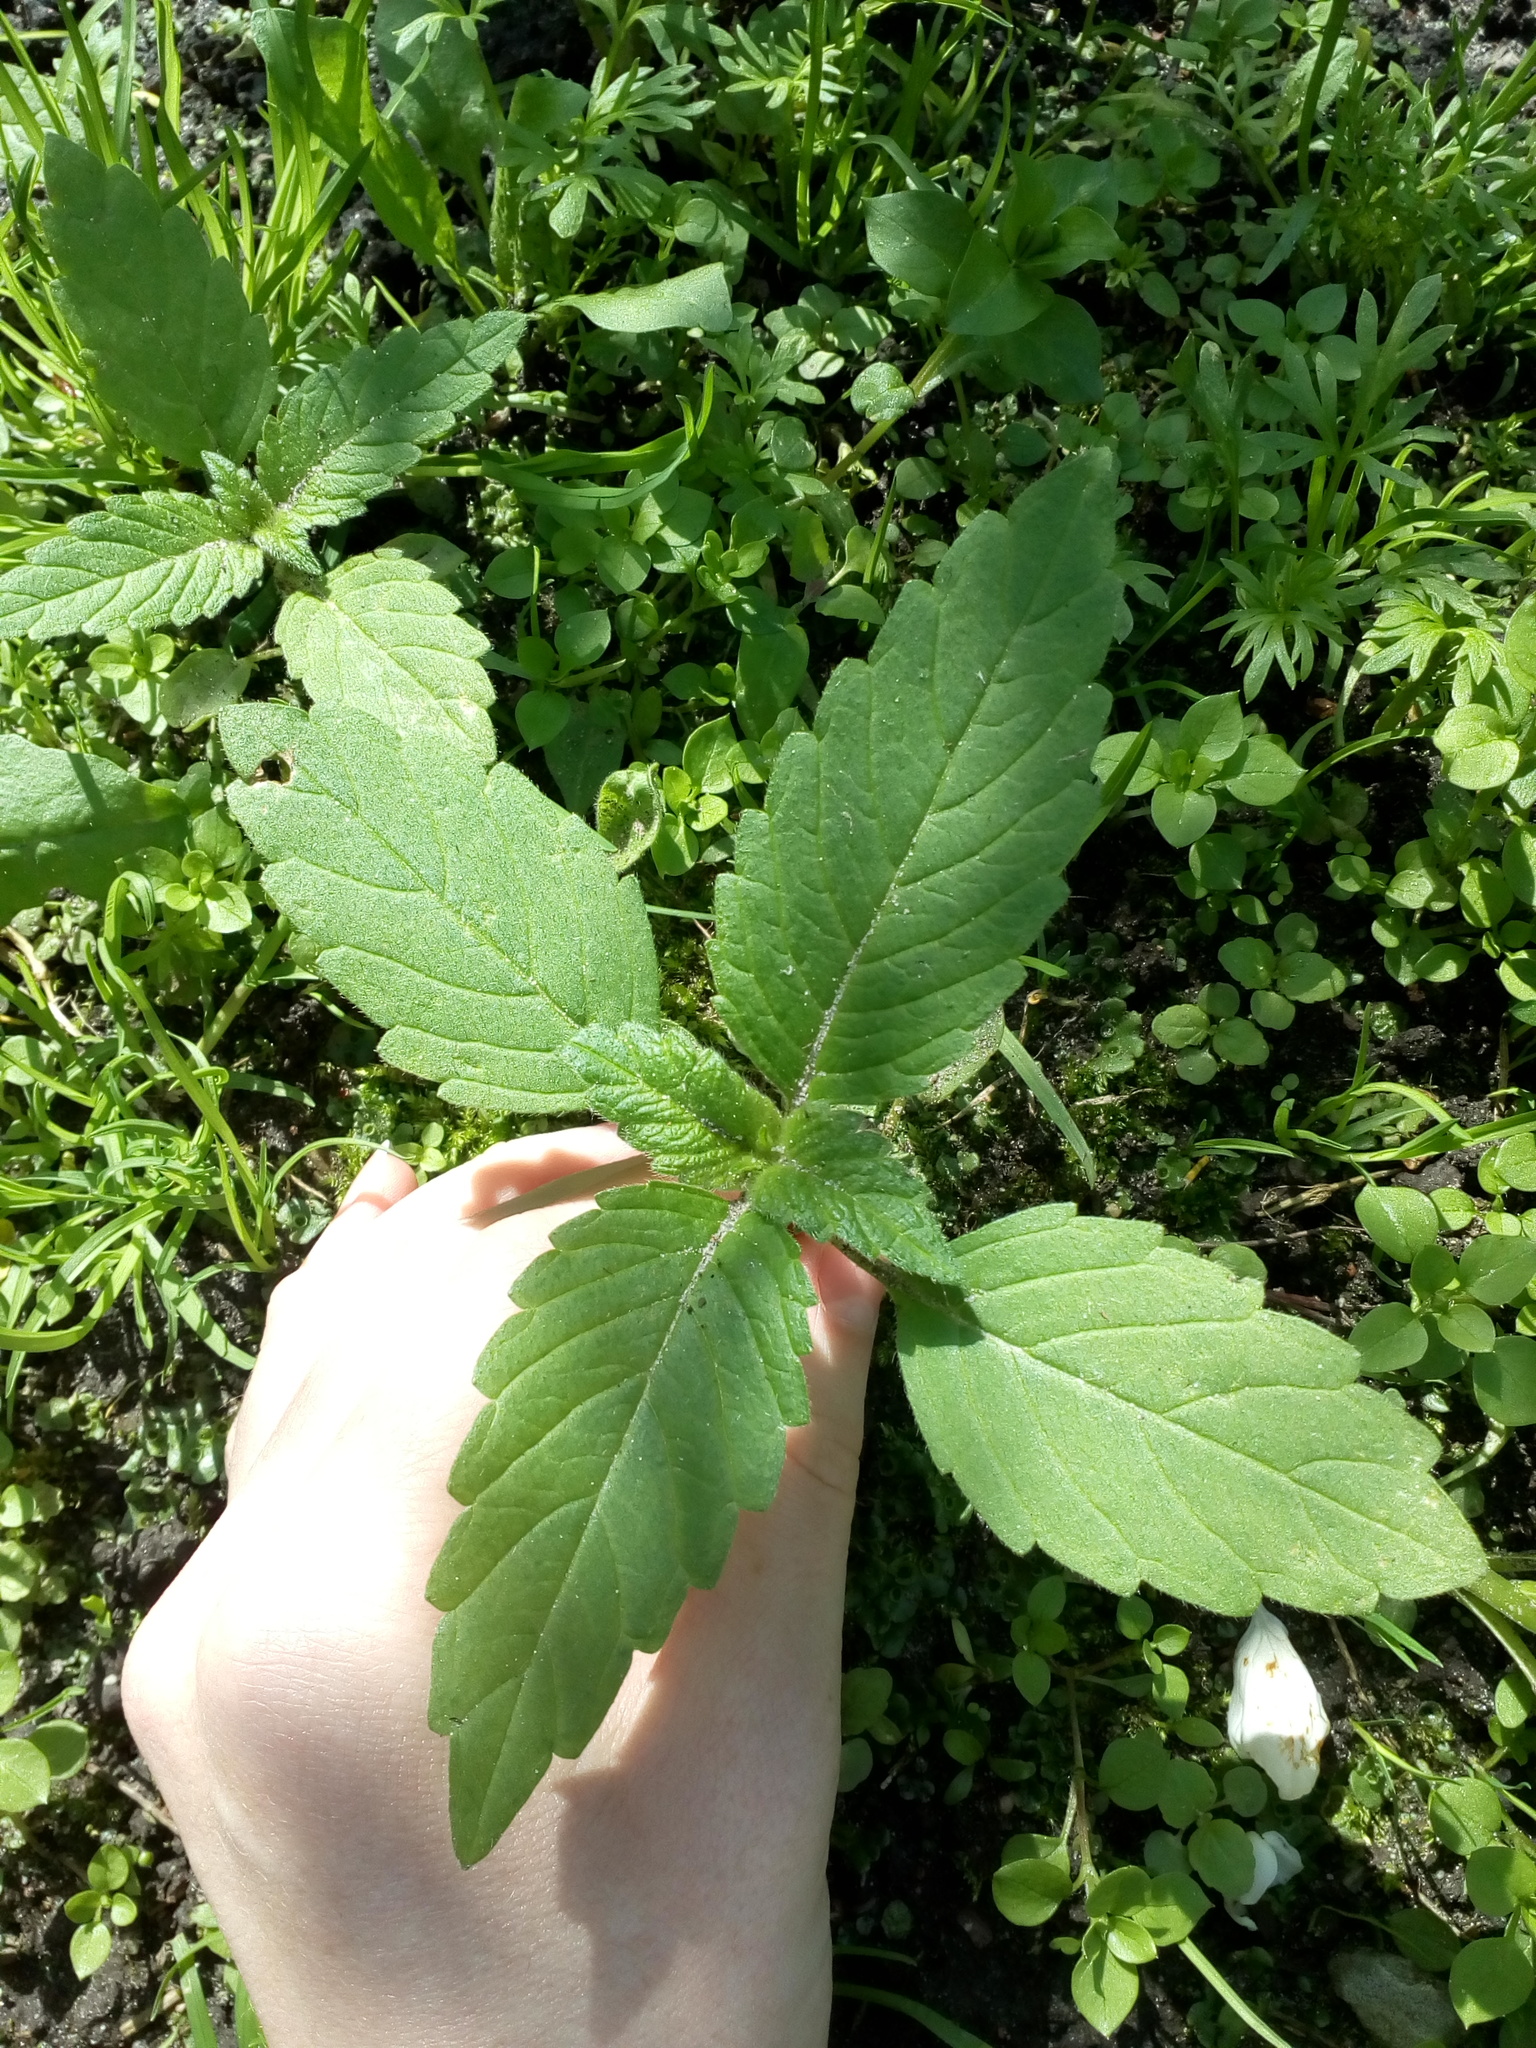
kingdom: Plantae
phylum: Tracheophyta
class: Magnoliopsida
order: Lamiales
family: Lamiaceae
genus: Galeopsis
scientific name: Galeopsis
